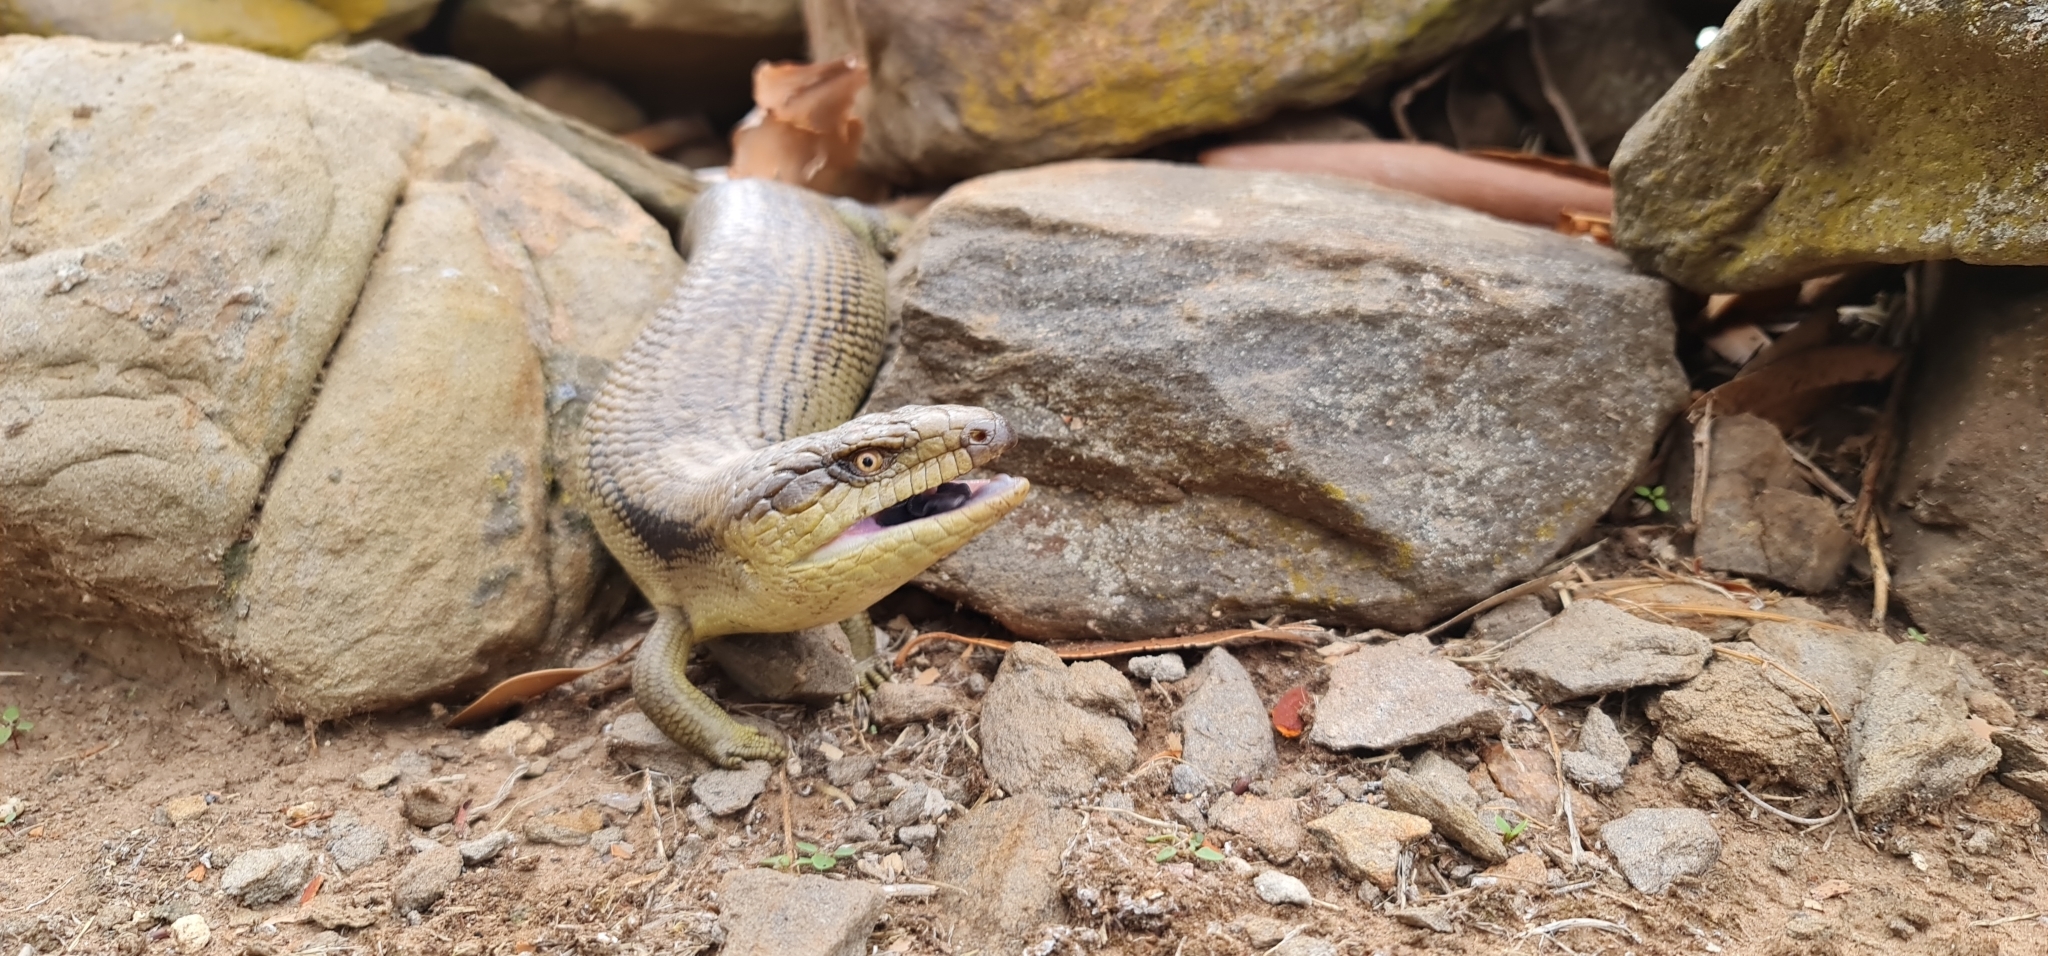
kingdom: Animalia
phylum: Chordata
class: Squamata
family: Scincidae
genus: Tiliqua
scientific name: Tiliqua scincoides
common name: Common bluetongue
